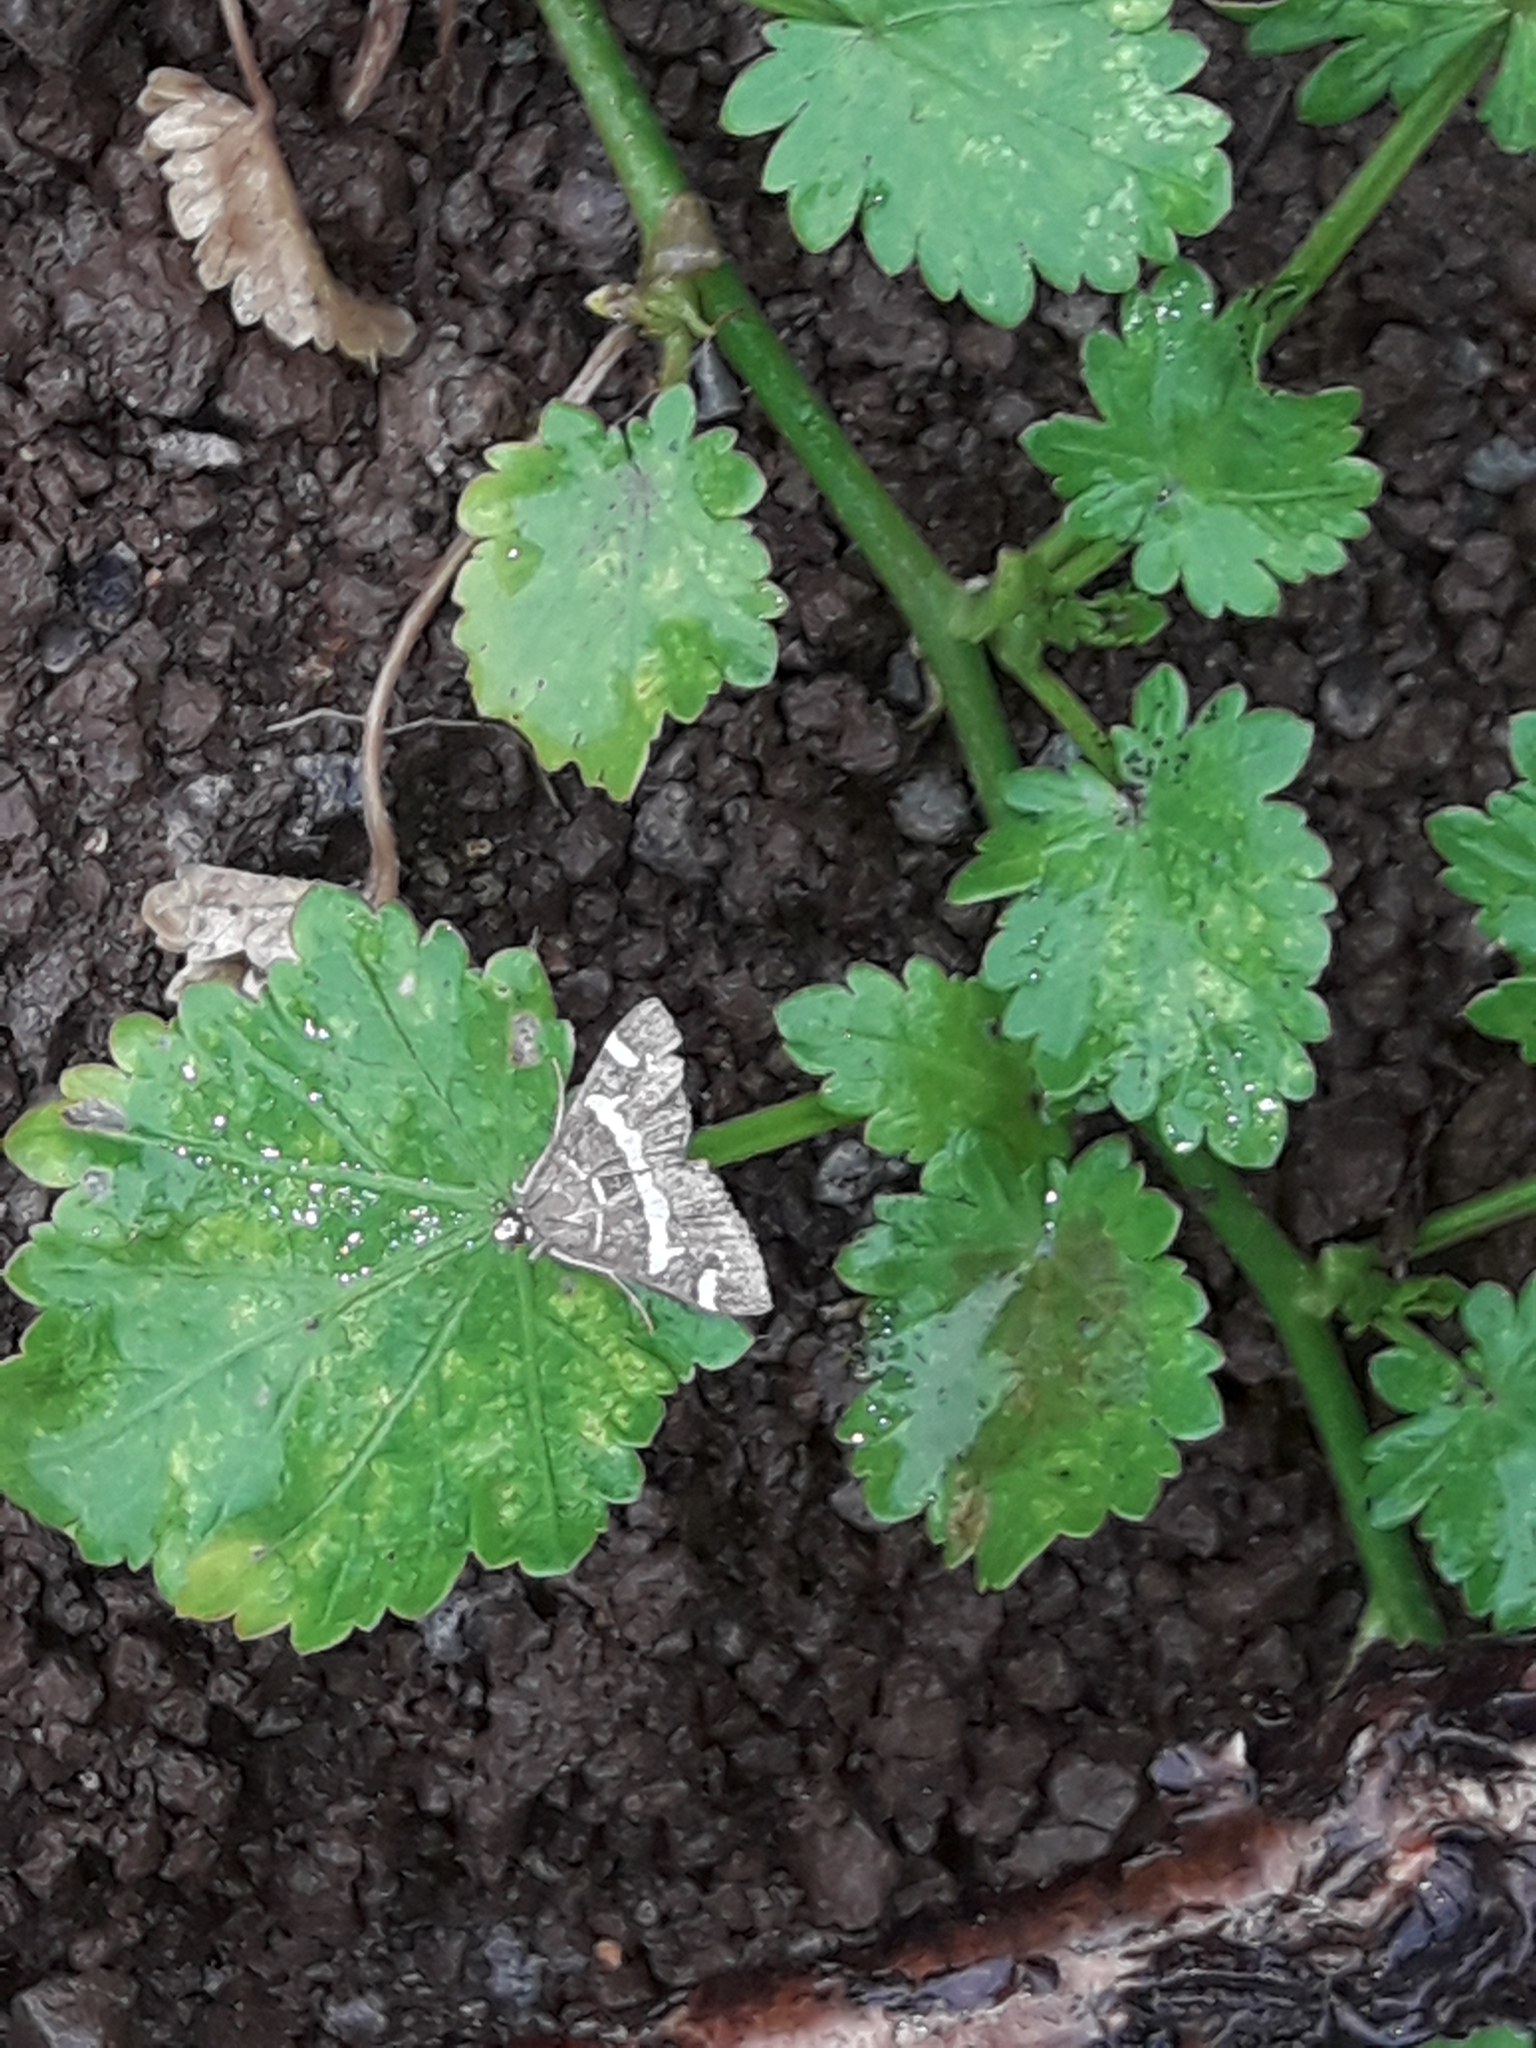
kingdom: Animalia
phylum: Arthropoda
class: Insecta
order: Lepidoptera
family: Crambidae
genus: Spoladea
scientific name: Spoladea recurvalis
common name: Beet webworm moth
